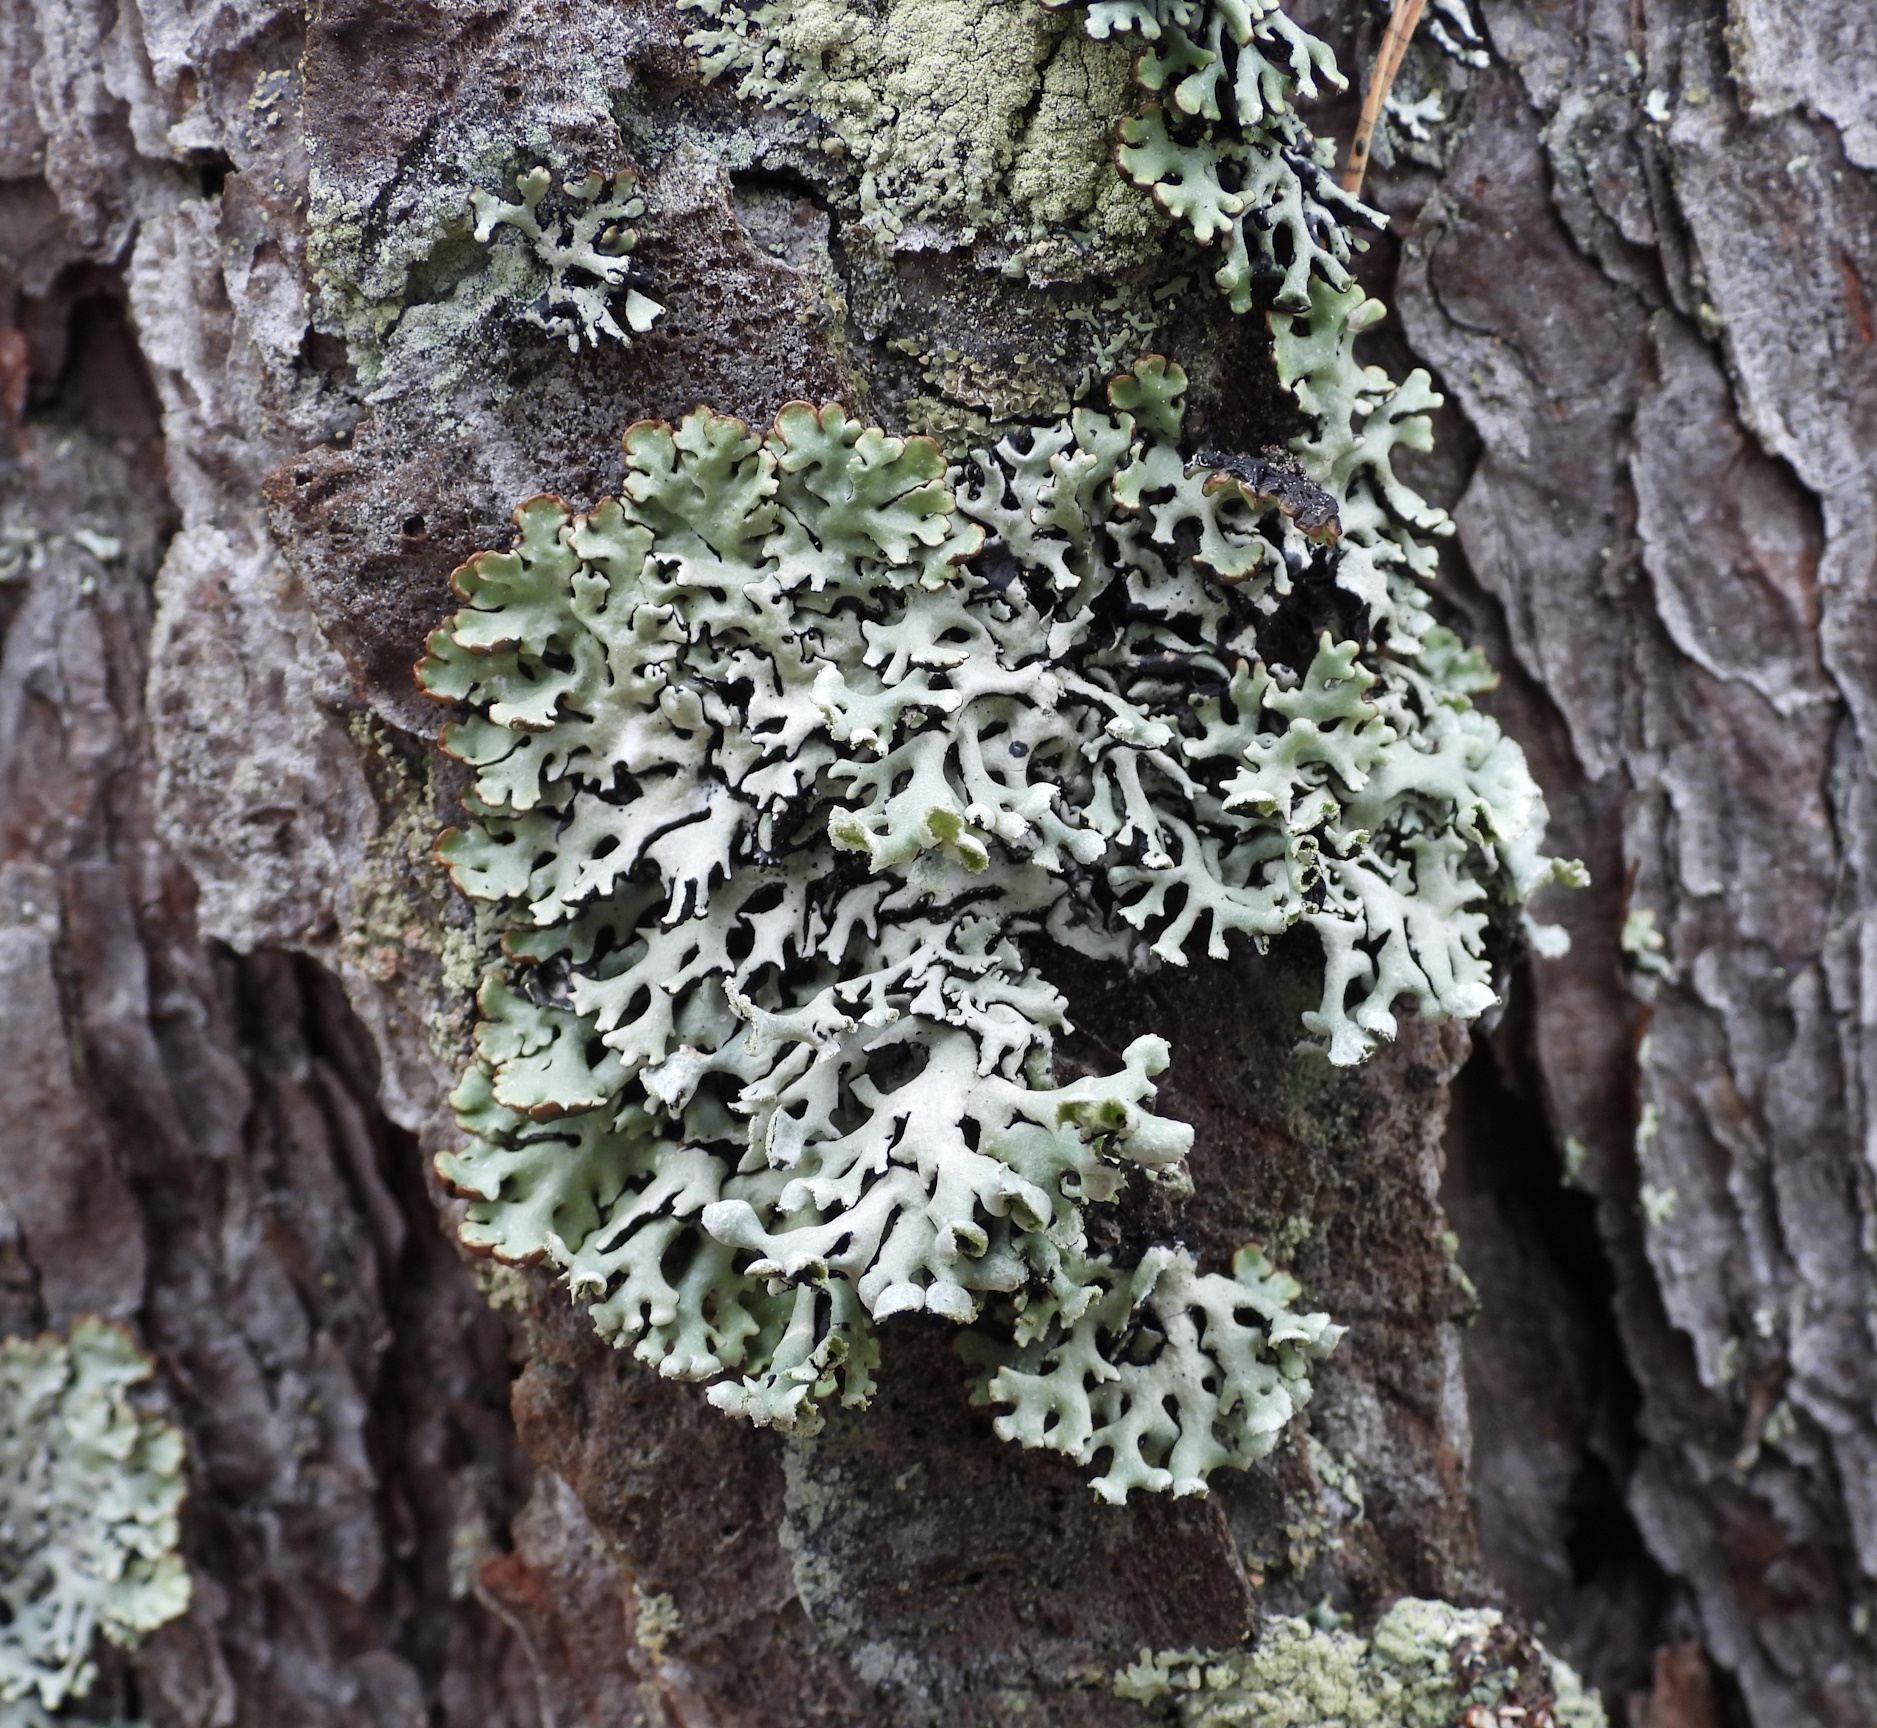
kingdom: Fungi
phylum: Ascomycota
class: Lecanoromycetes
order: Lecanorales
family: Parmeliaceae
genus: Hypogymnia
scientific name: Hypogymnia physodes
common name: Dark crottle
